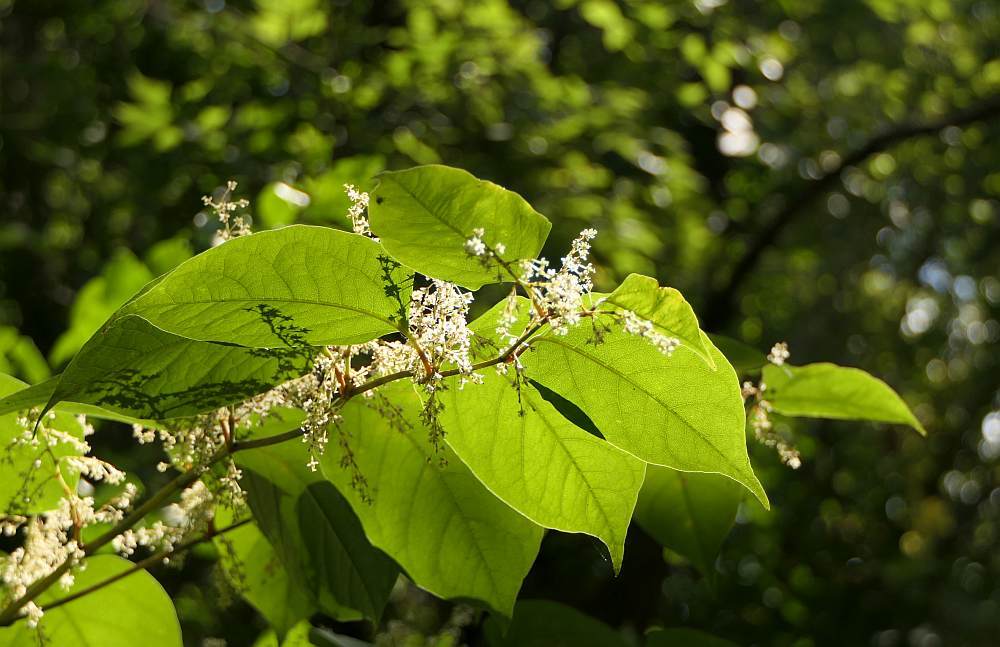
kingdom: Plantae
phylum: Tracheophyta
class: Magnoliopsida
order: Caryophyllales
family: Polygonaceae
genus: Reynoutria
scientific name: Reynoutria japonica
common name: Japanese knotweed
